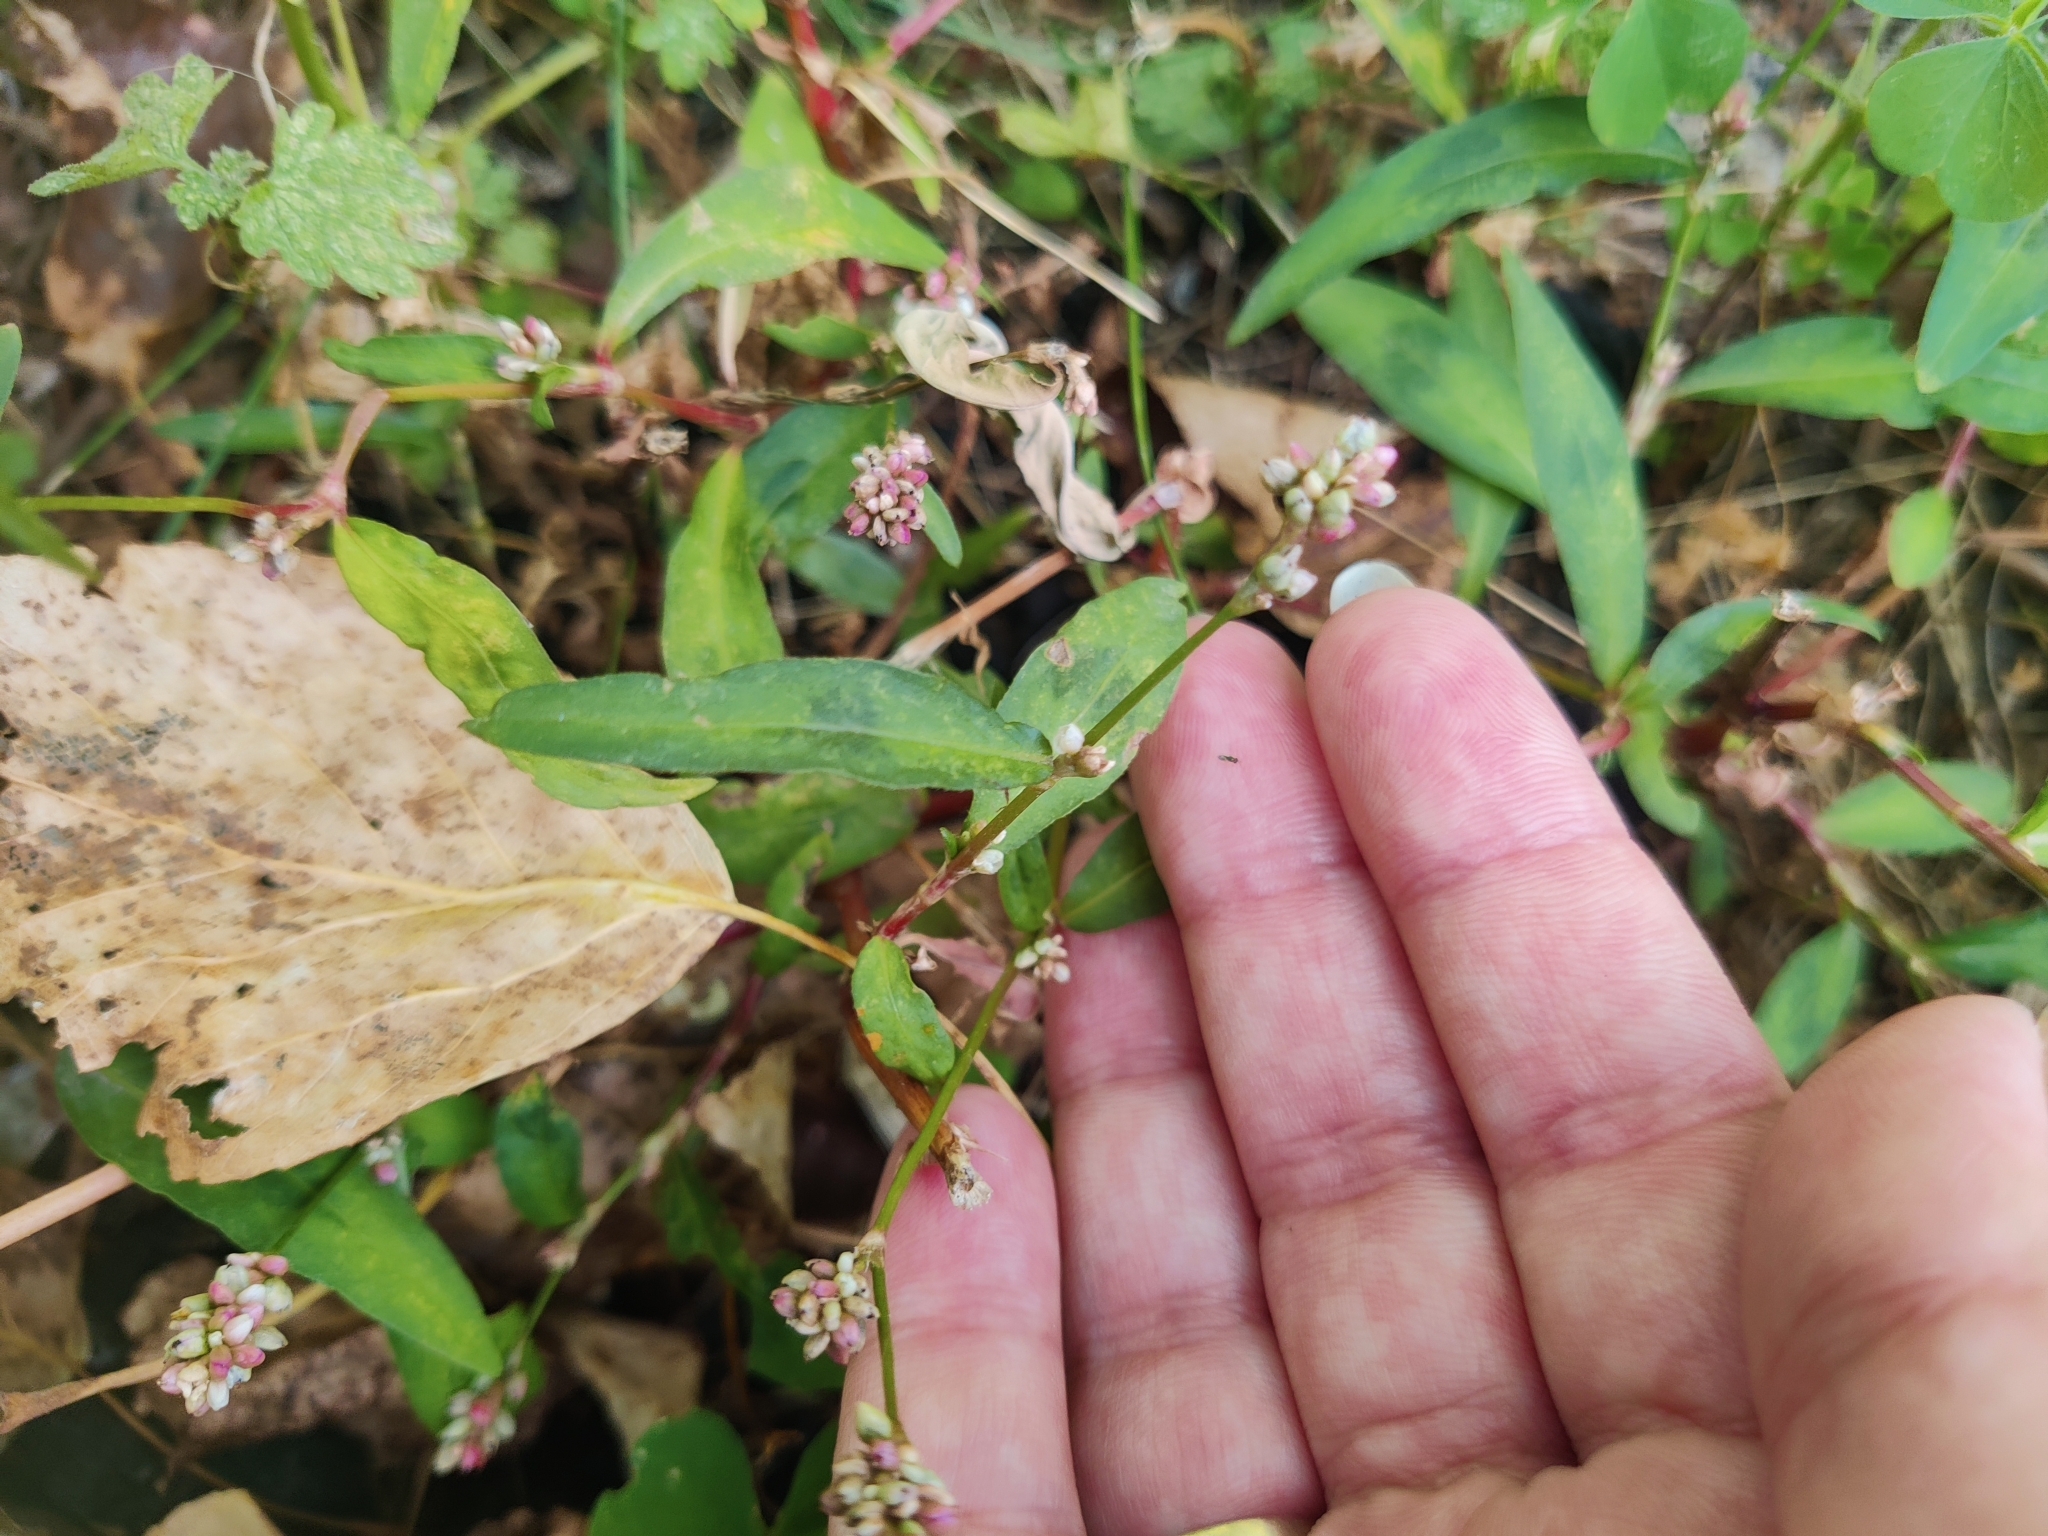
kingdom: Plantae
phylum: Tracheophyta
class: Magnoliopsida
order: Caryophyllales
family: Polygonaceae
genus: Persicaria
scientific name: Persicaria maculosa
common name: Redshank
